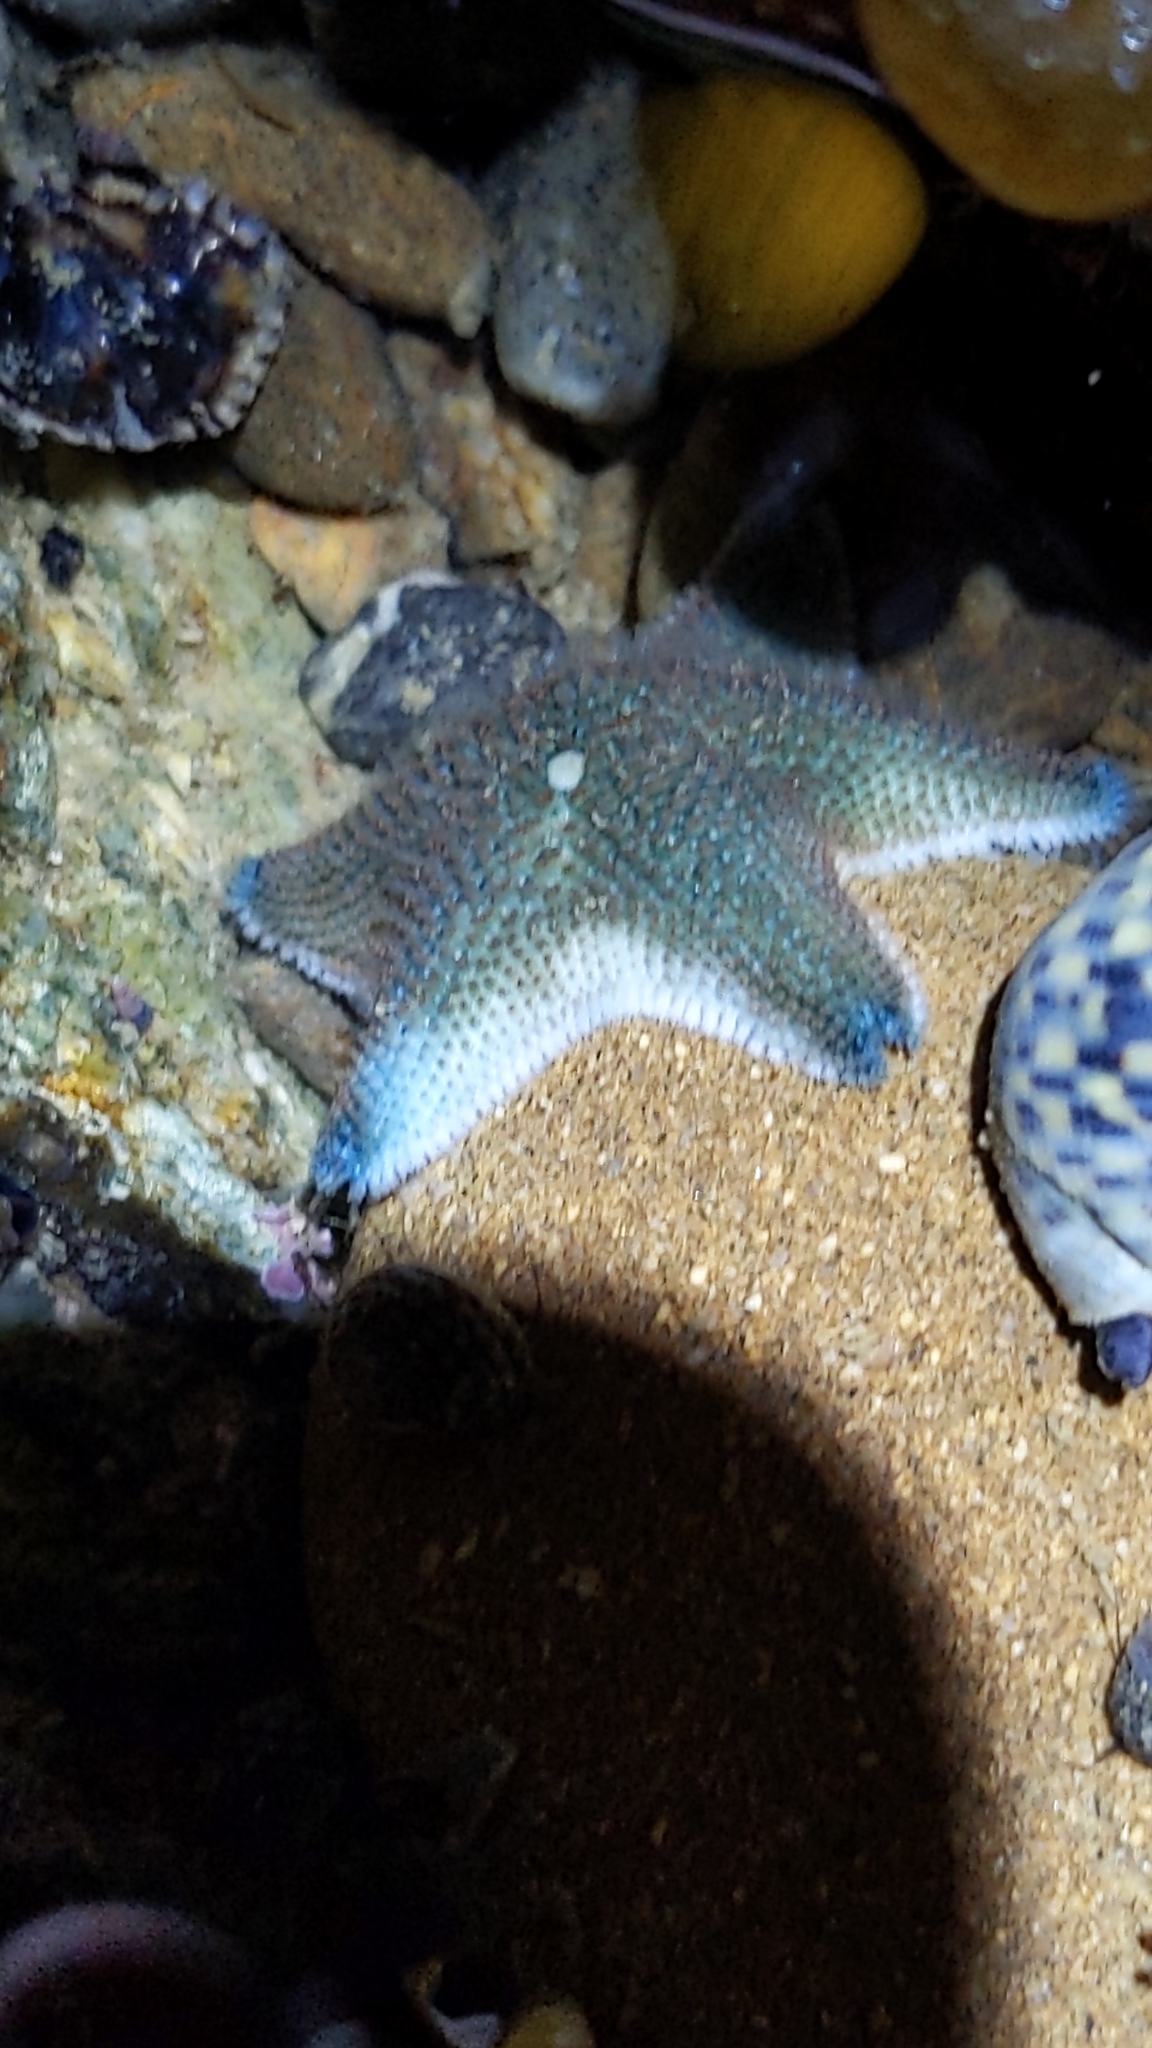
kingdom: Animalia
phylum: Echinodermata
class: Asteroidea
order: Valvatida
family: Asterinidae
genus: Patiriella
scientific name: Patiriella regularis
